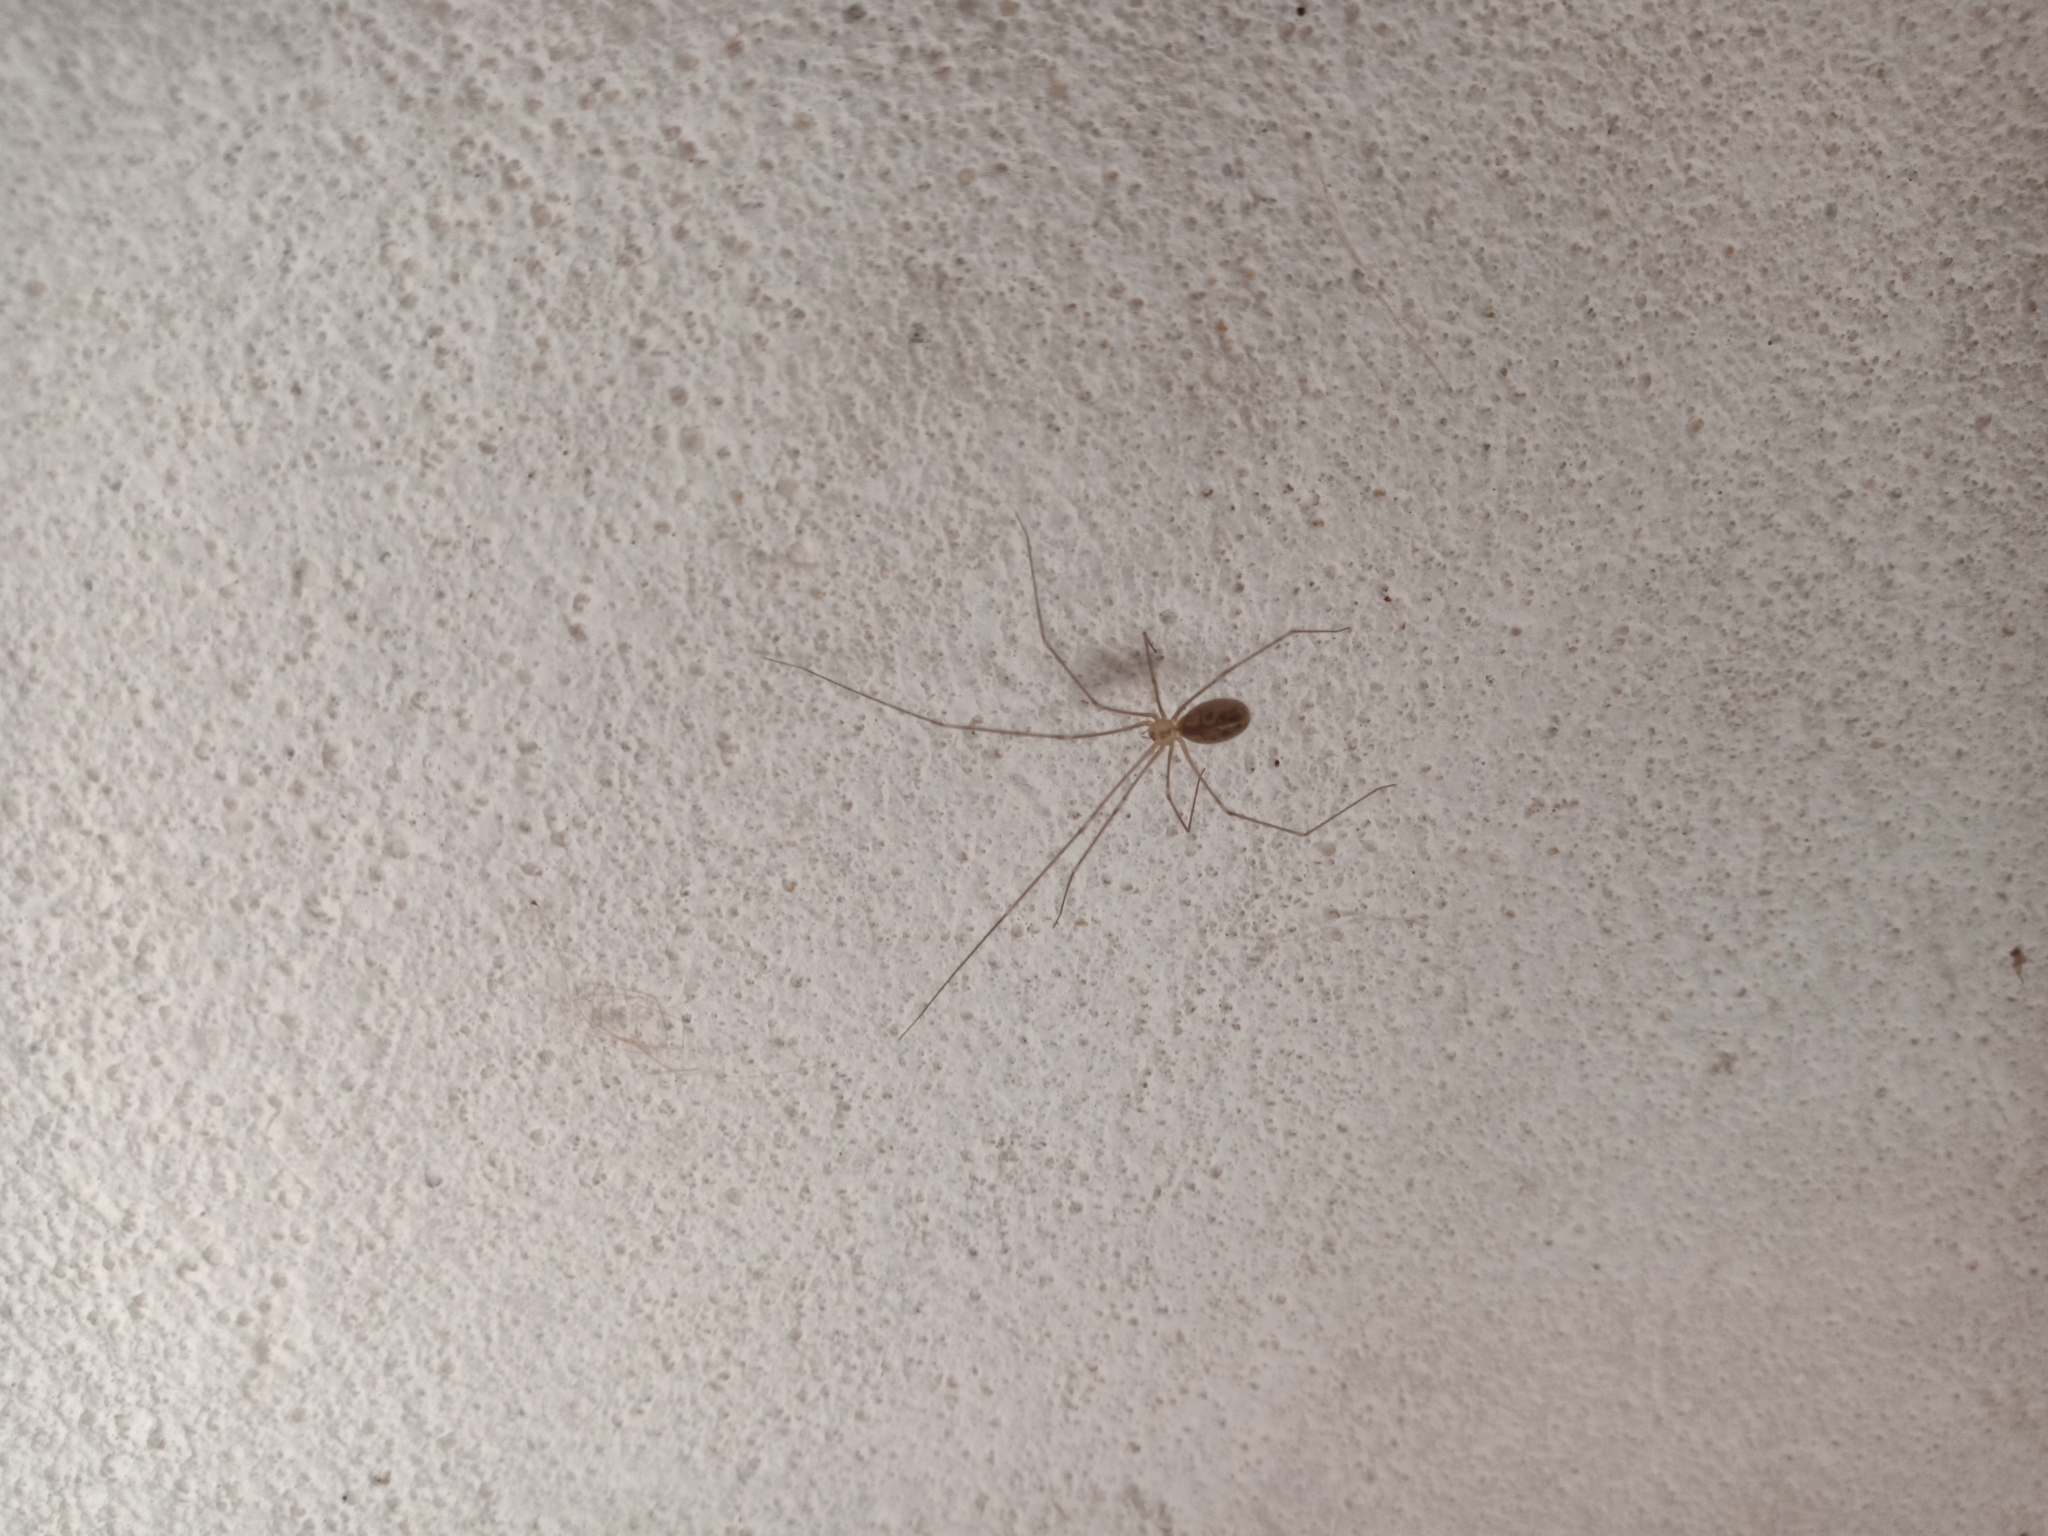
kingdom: Animalia
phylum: Arthropoda
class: Arachnida
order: Araneae
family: Pholcidae
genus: Pholcus
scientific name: Pholcus phalangioides
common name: Longbodied cellar spider
